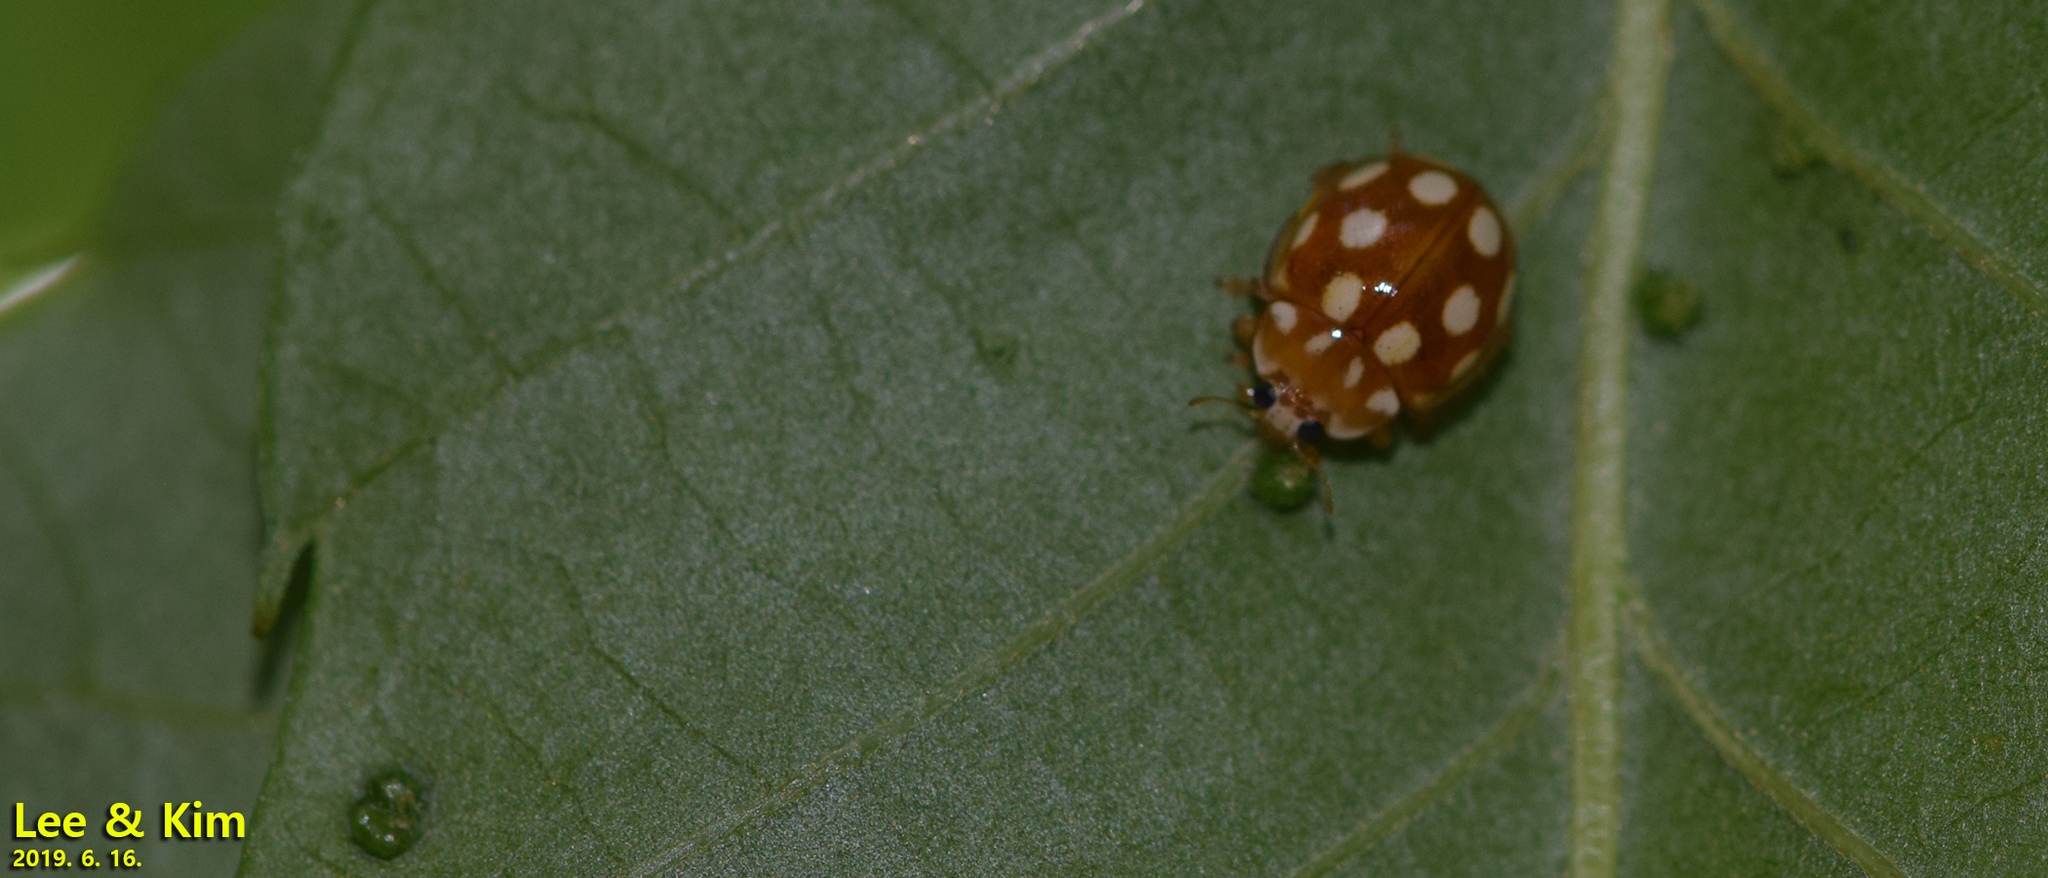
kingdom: Animalia
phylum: Arthropoda
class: Insecta
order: Coleoptera
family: Coccinellidae
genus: Calvia
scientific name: Calvia muiri
